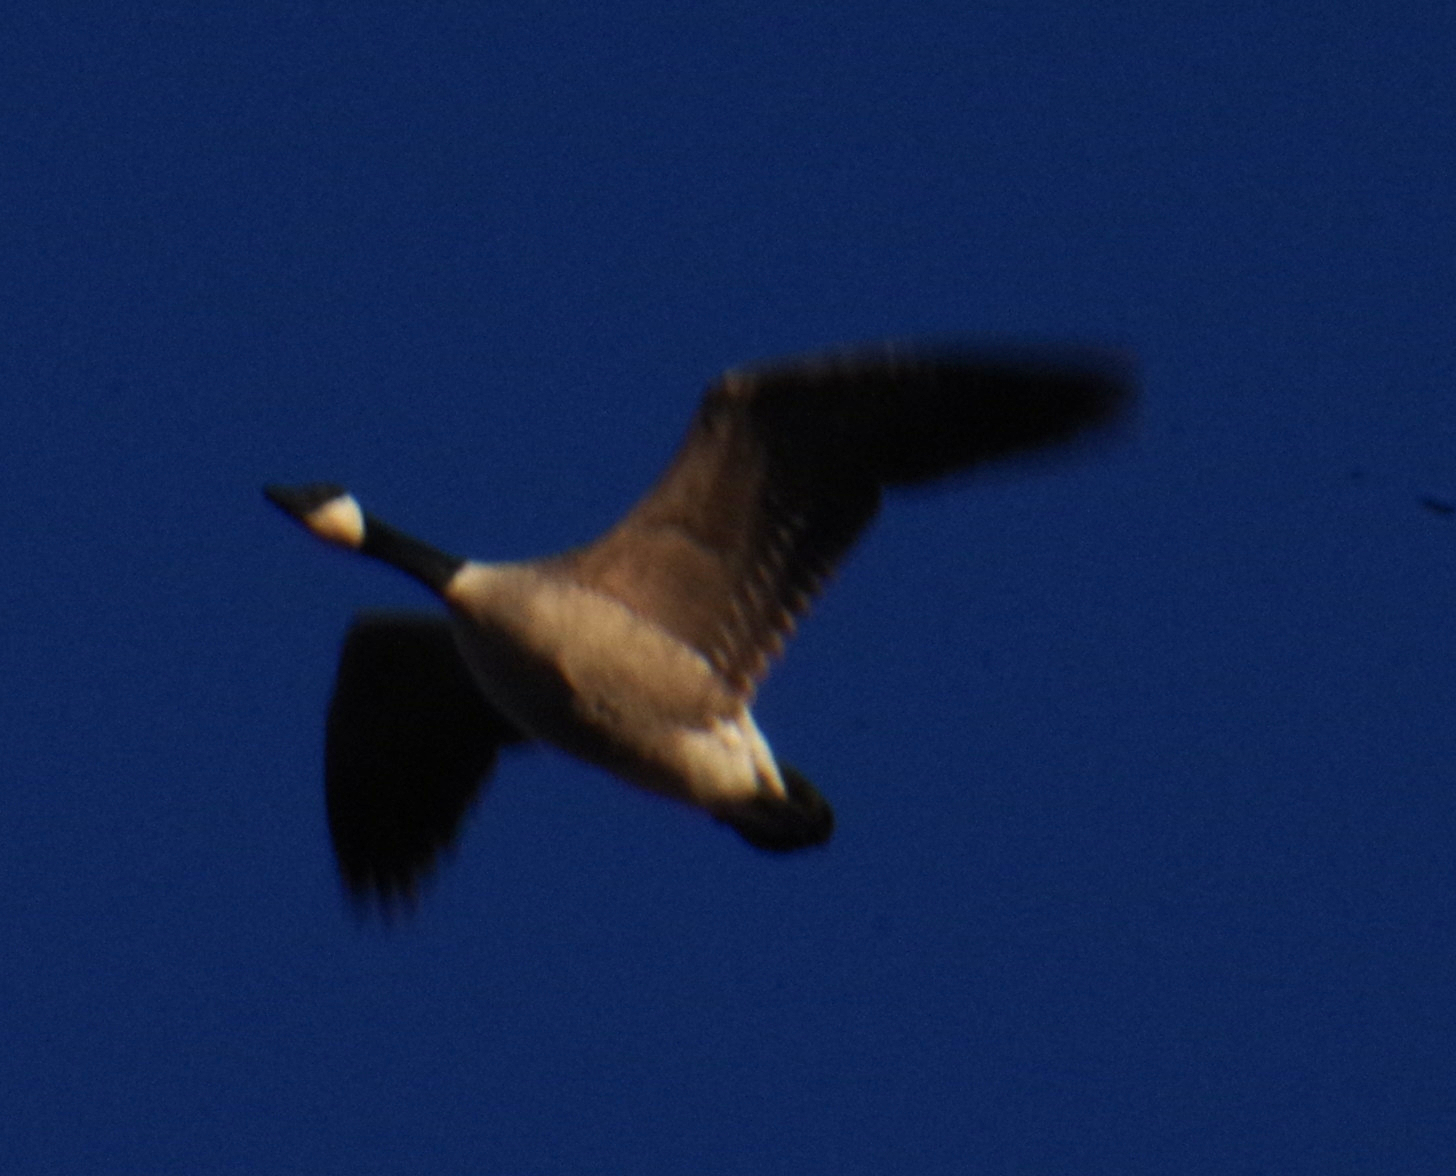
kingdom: Animalia
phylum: Chordata
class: Aves
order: Anseriformes
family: Anatidae
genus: Branta
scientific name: Branta canadensis
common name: Canada goose
